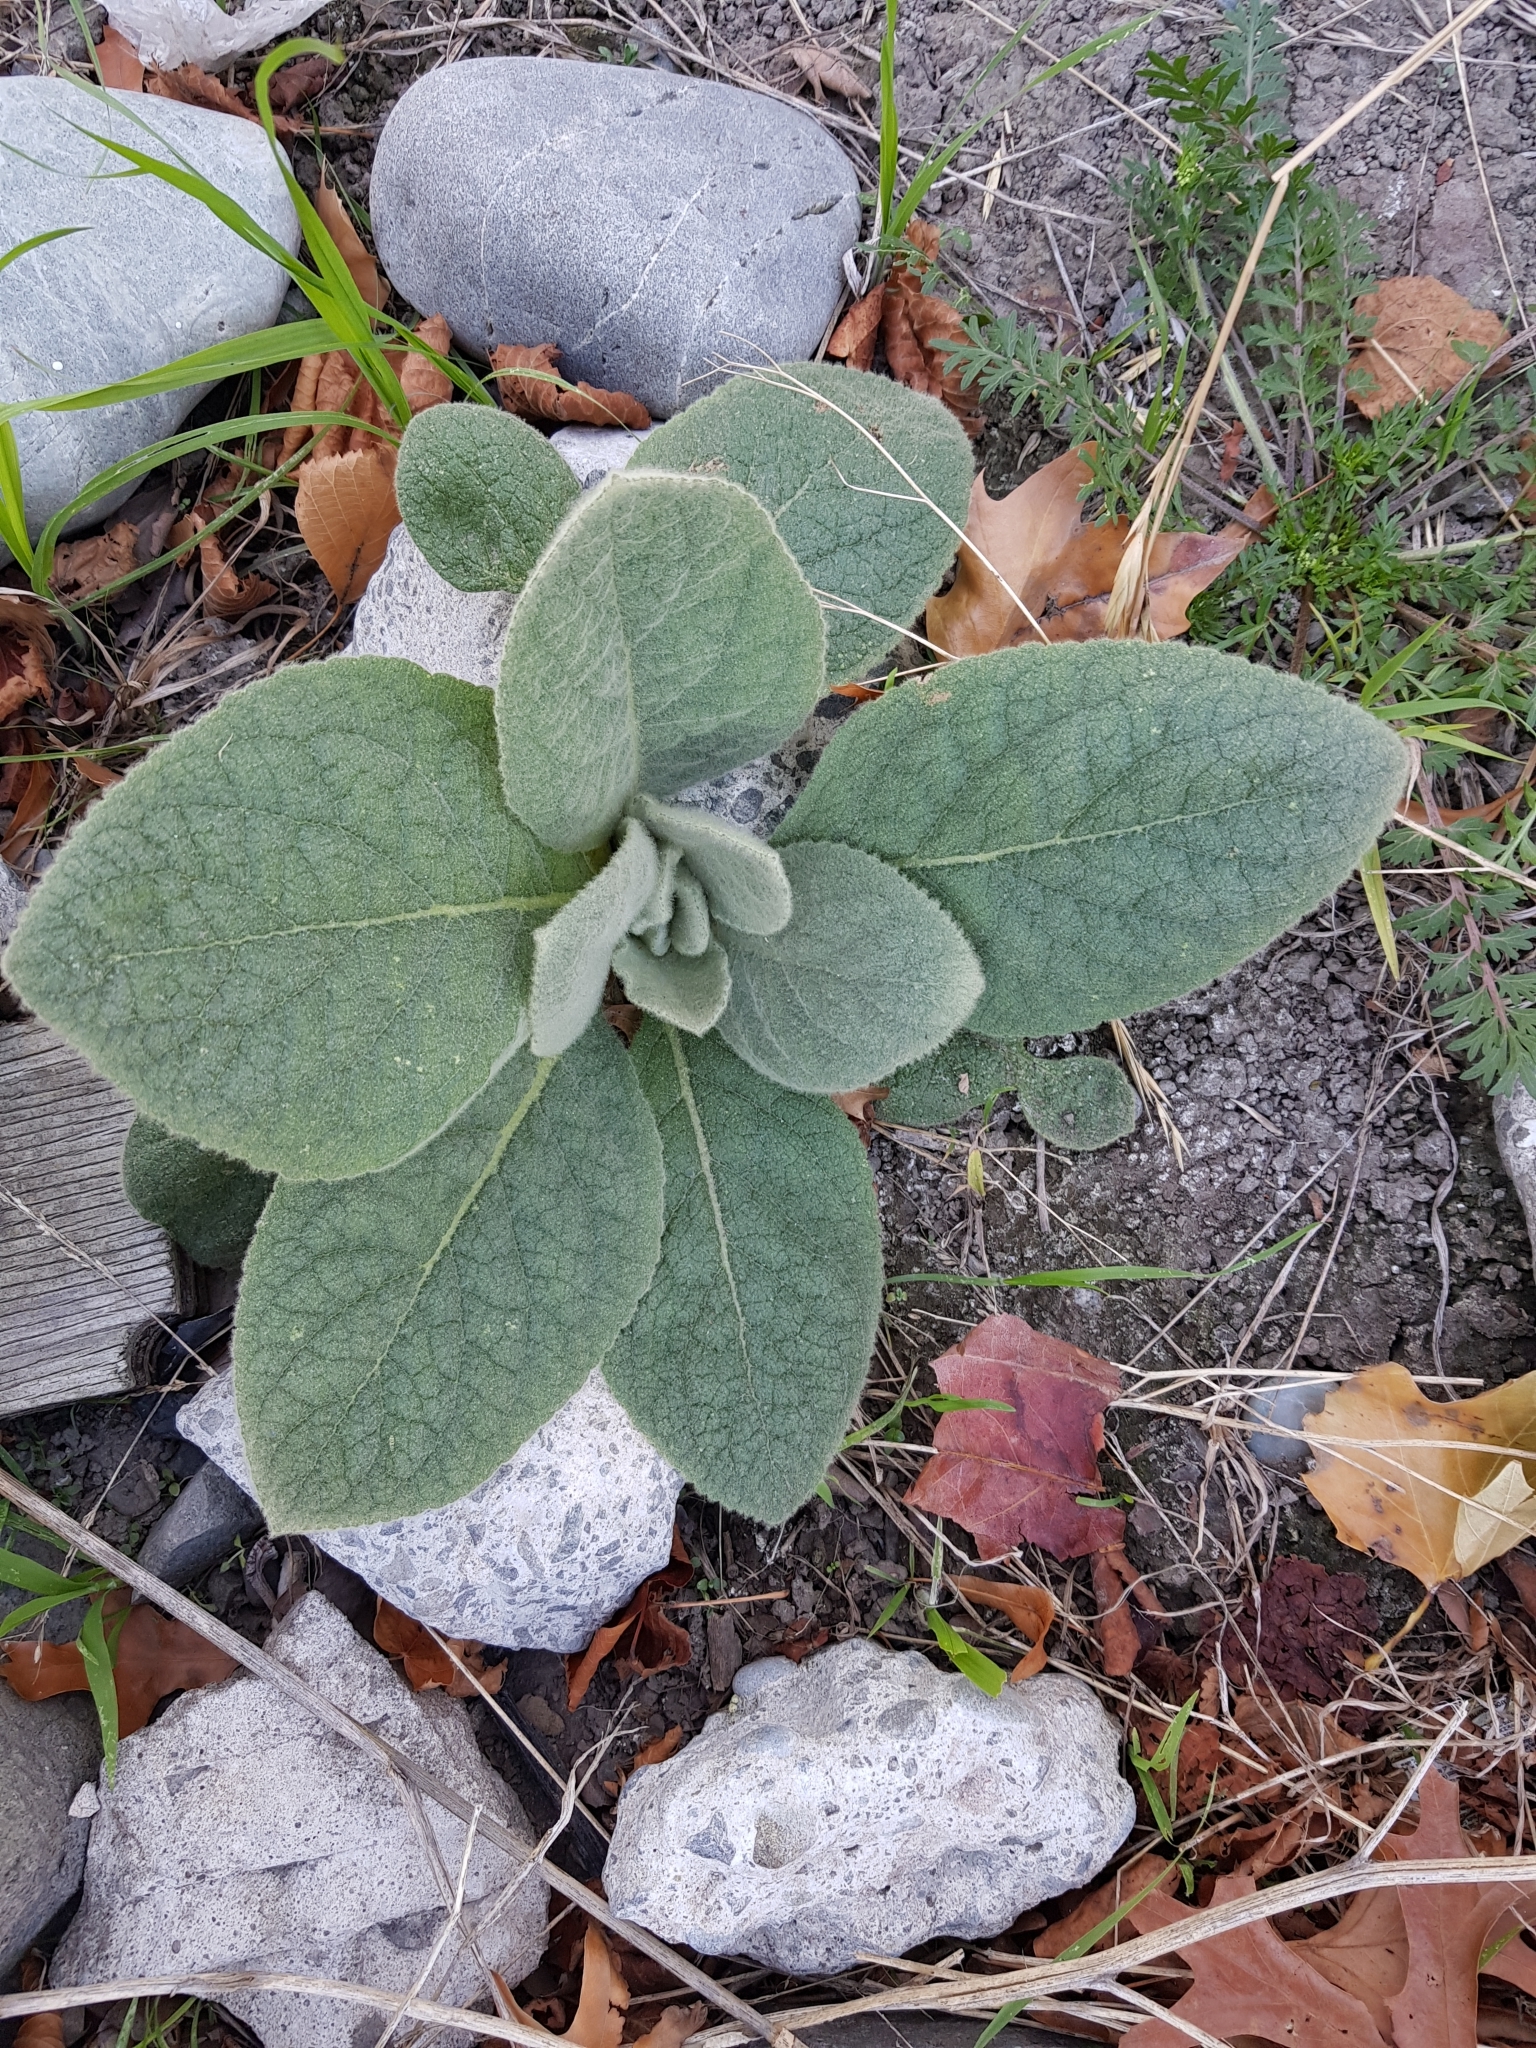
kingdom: Plantae
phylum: Tracheophyta
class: Magnoliopsida
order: Lamiales
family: Scrophulariaceae
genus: Verbascum
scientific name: Verbascum thapsus
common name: Common mullein
